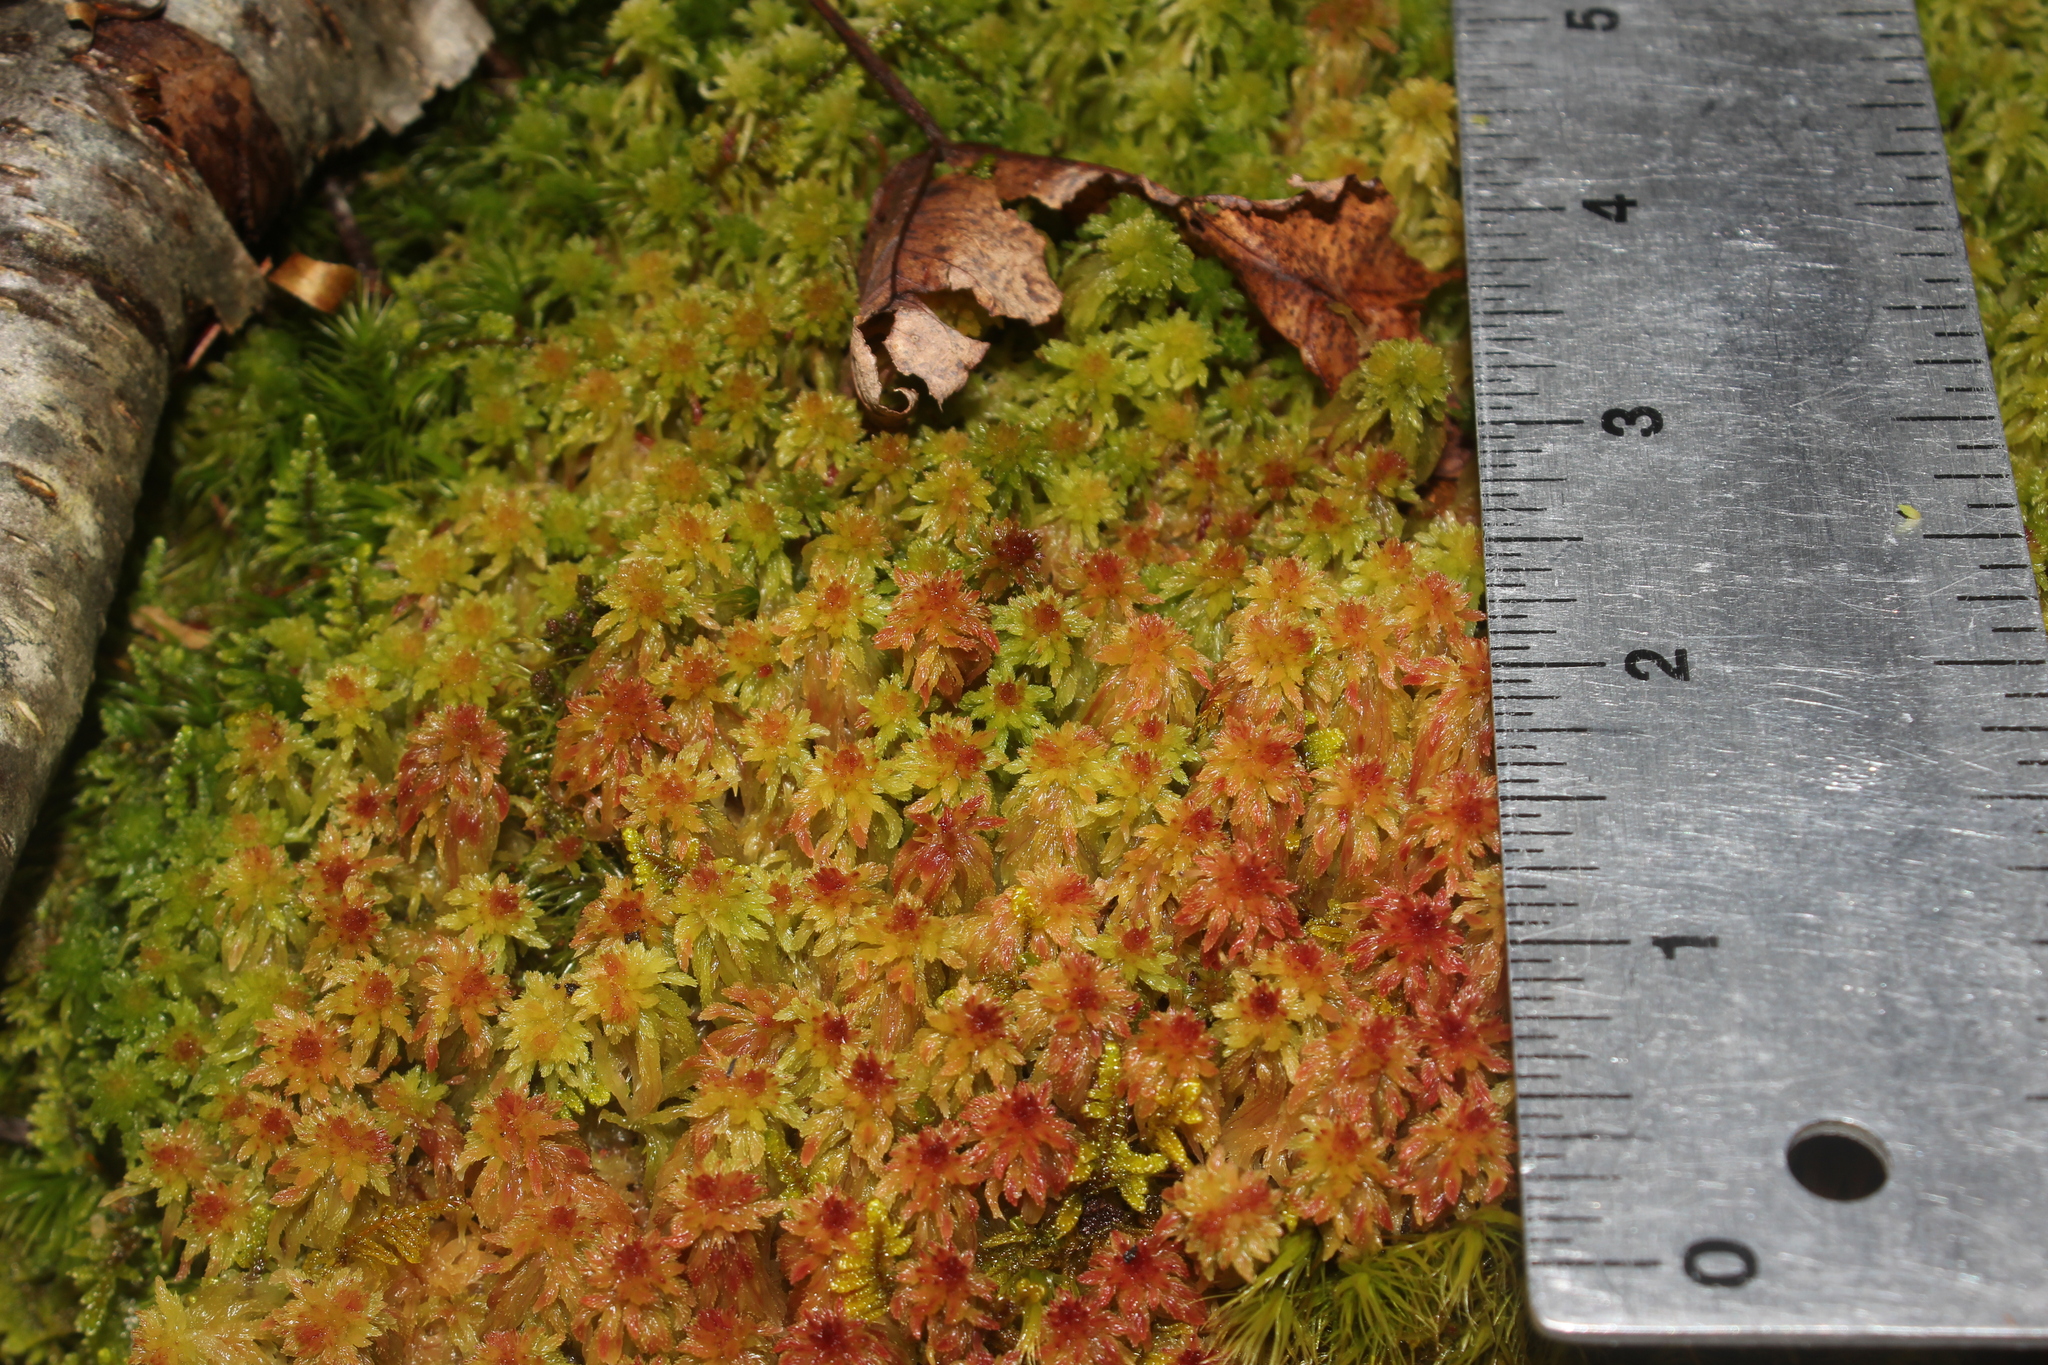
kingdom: Plantae
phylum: Bryophyta
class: Sphagnopsida
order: Sphagnales
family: Sphagnaceae
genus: Sphagnum
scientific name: Sphagnum
